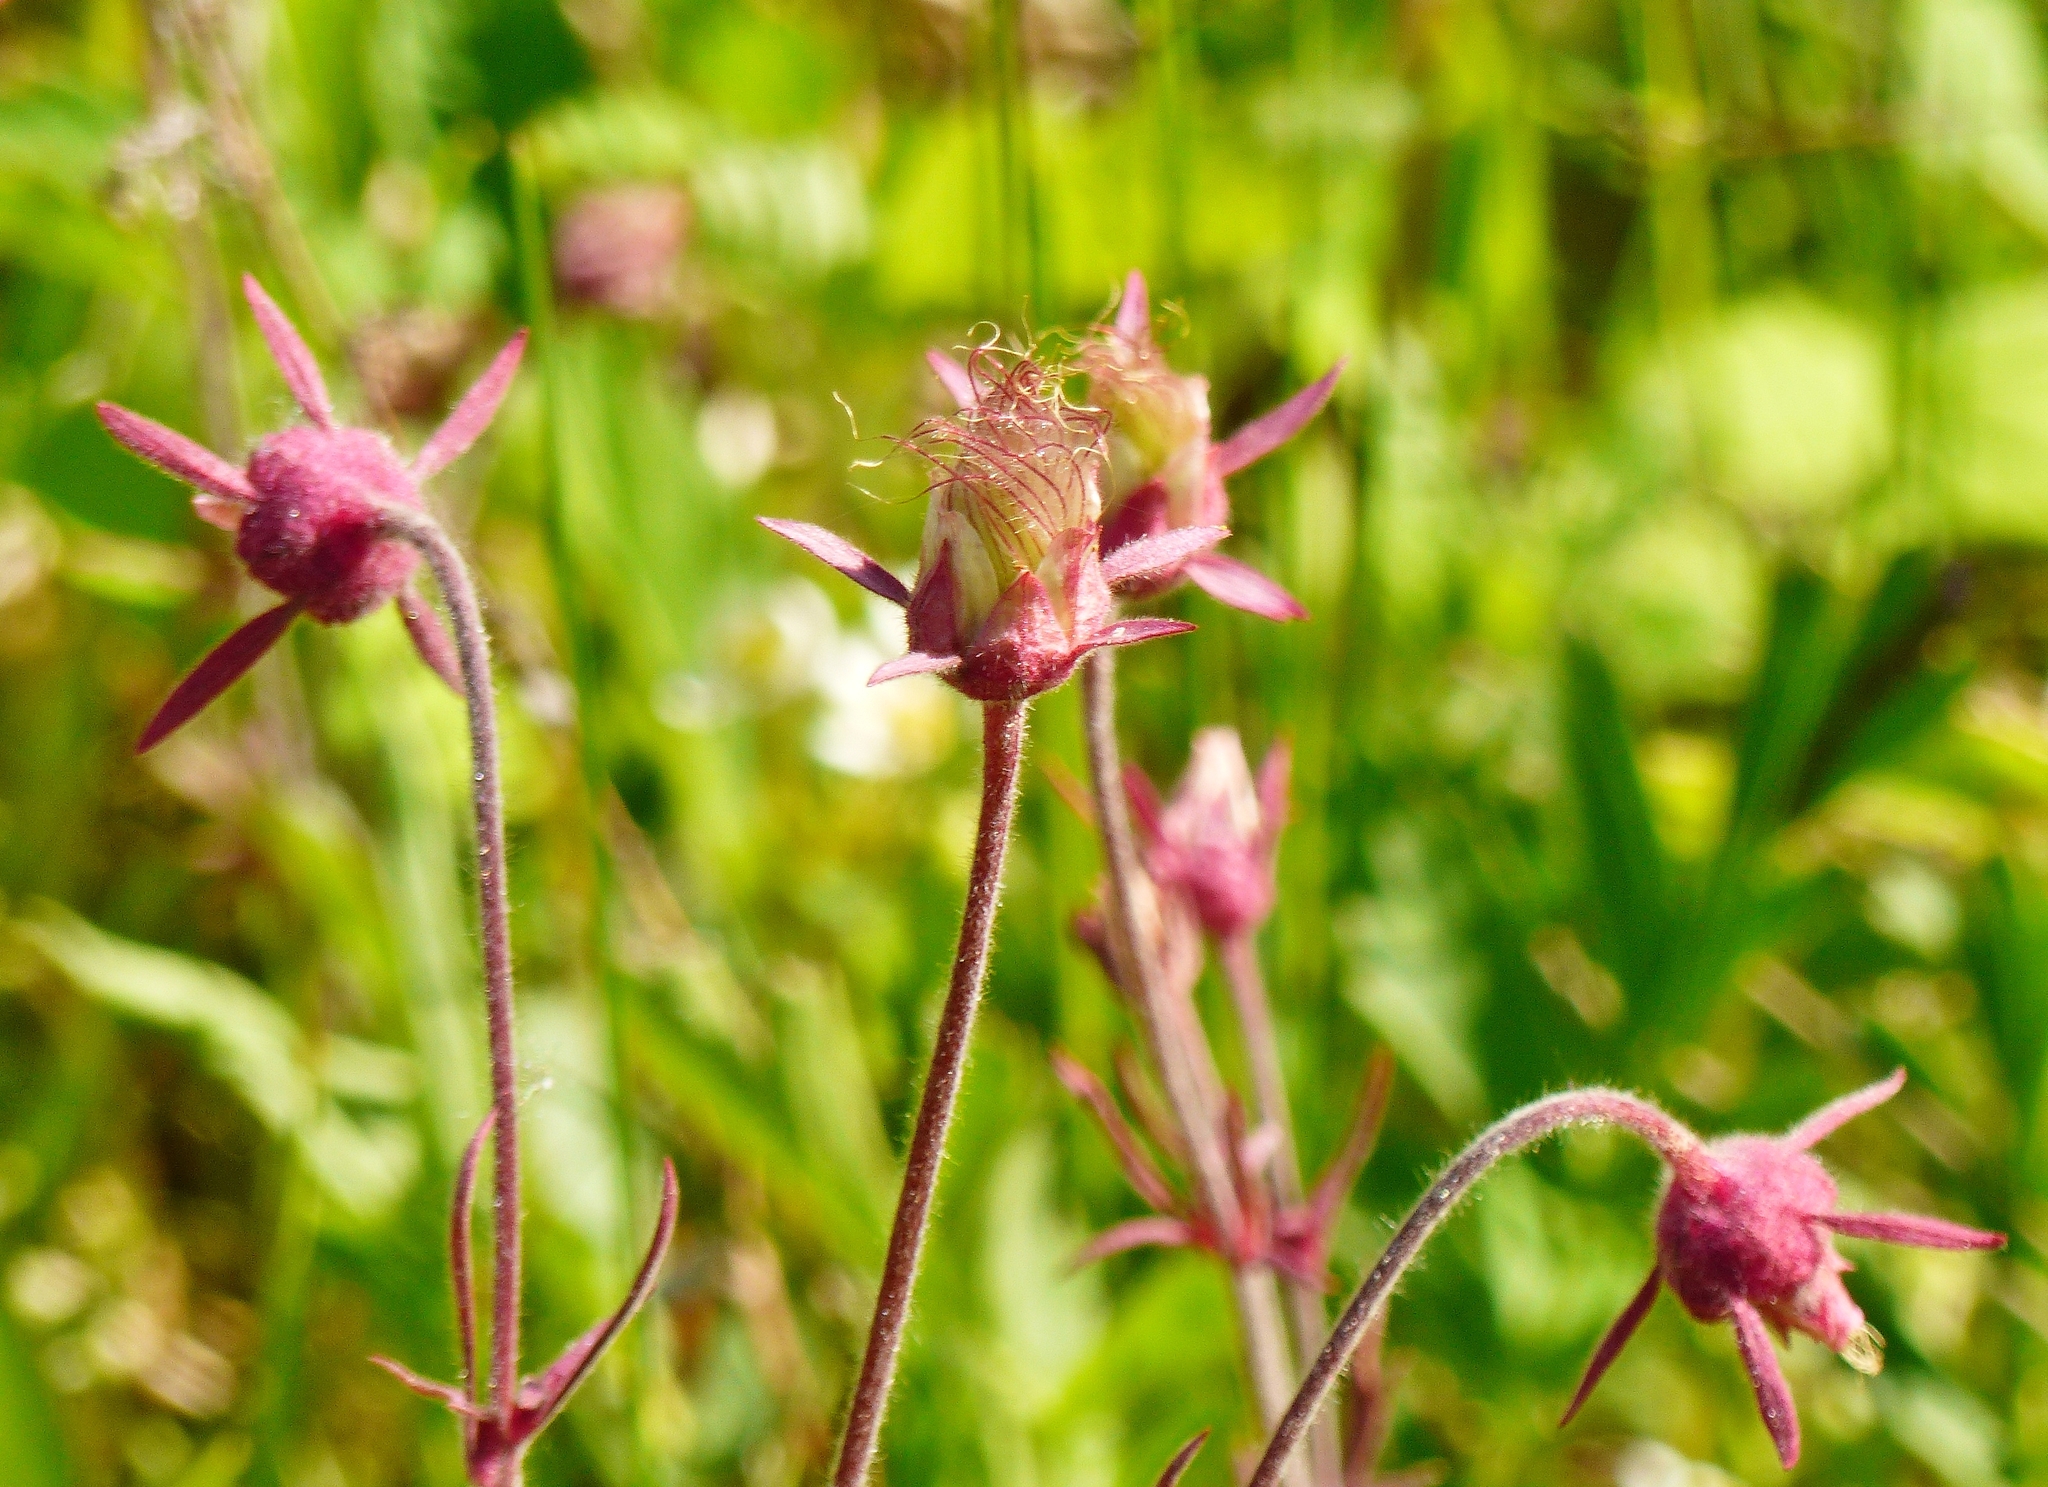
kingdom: Plantae
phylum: Tracheophyta
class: Magnoliopsida
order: Rosales
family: Rosaceae
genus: Geum
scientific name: Geum triflorum
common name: Old man's whiskers
